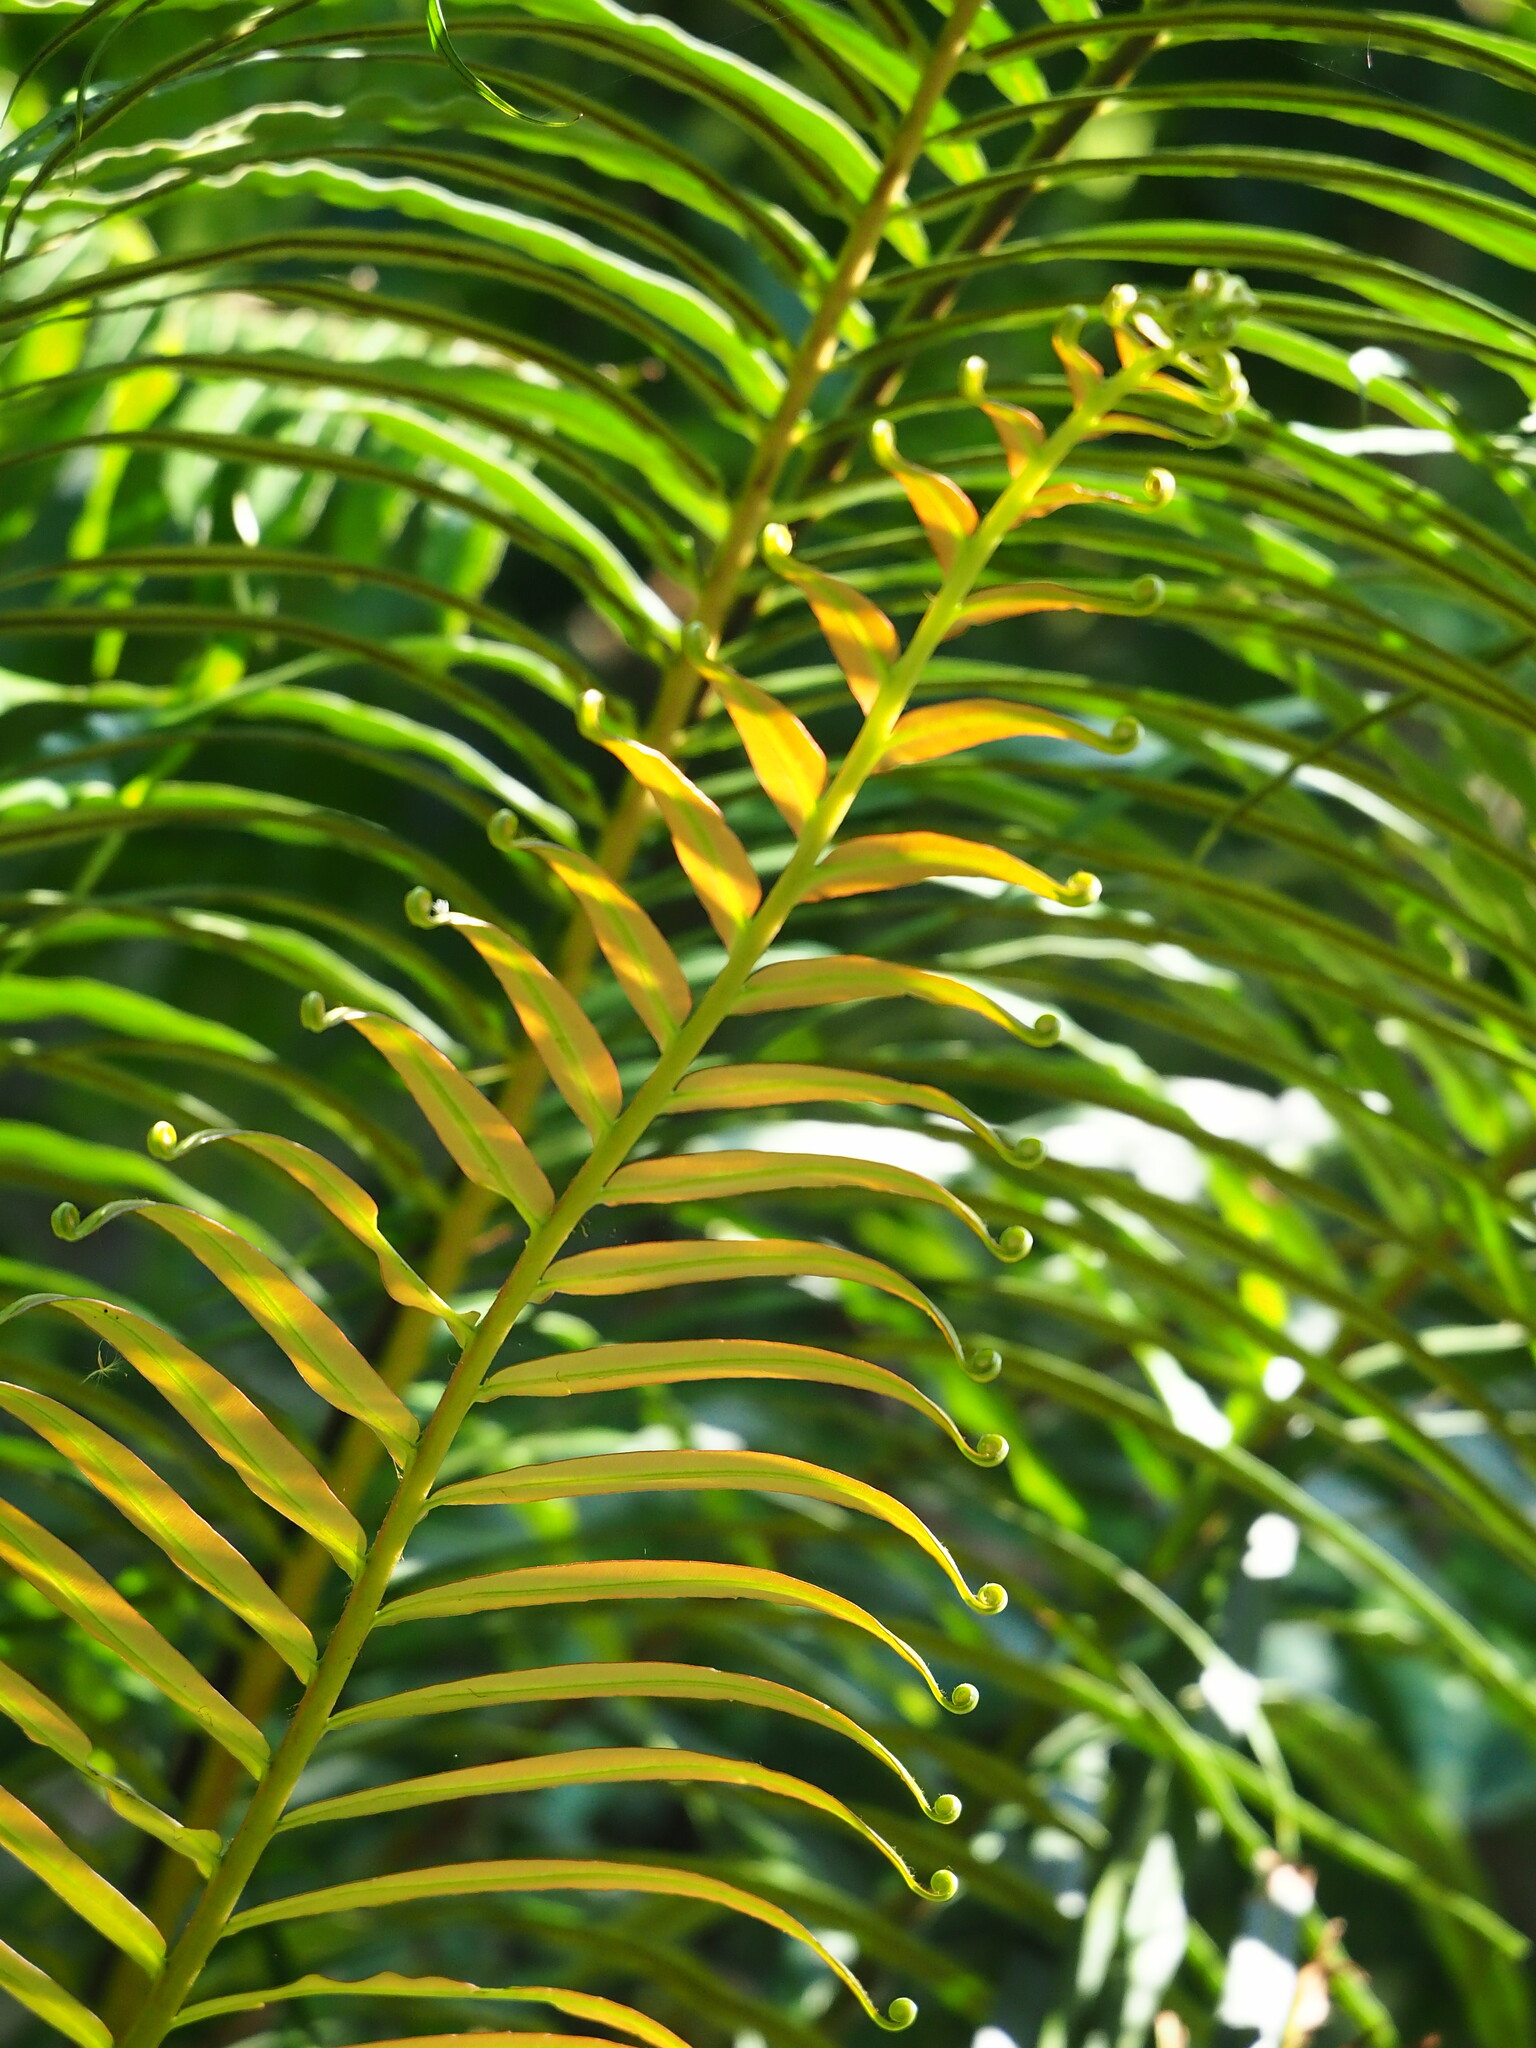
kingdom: Plantae
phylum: Tracheophyta
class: Polypodiopsida
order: Polypodiales
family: Blechnaceae
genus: Blechnopsis
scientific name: Blechnopsis orientalis
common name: Oriental blechnum
